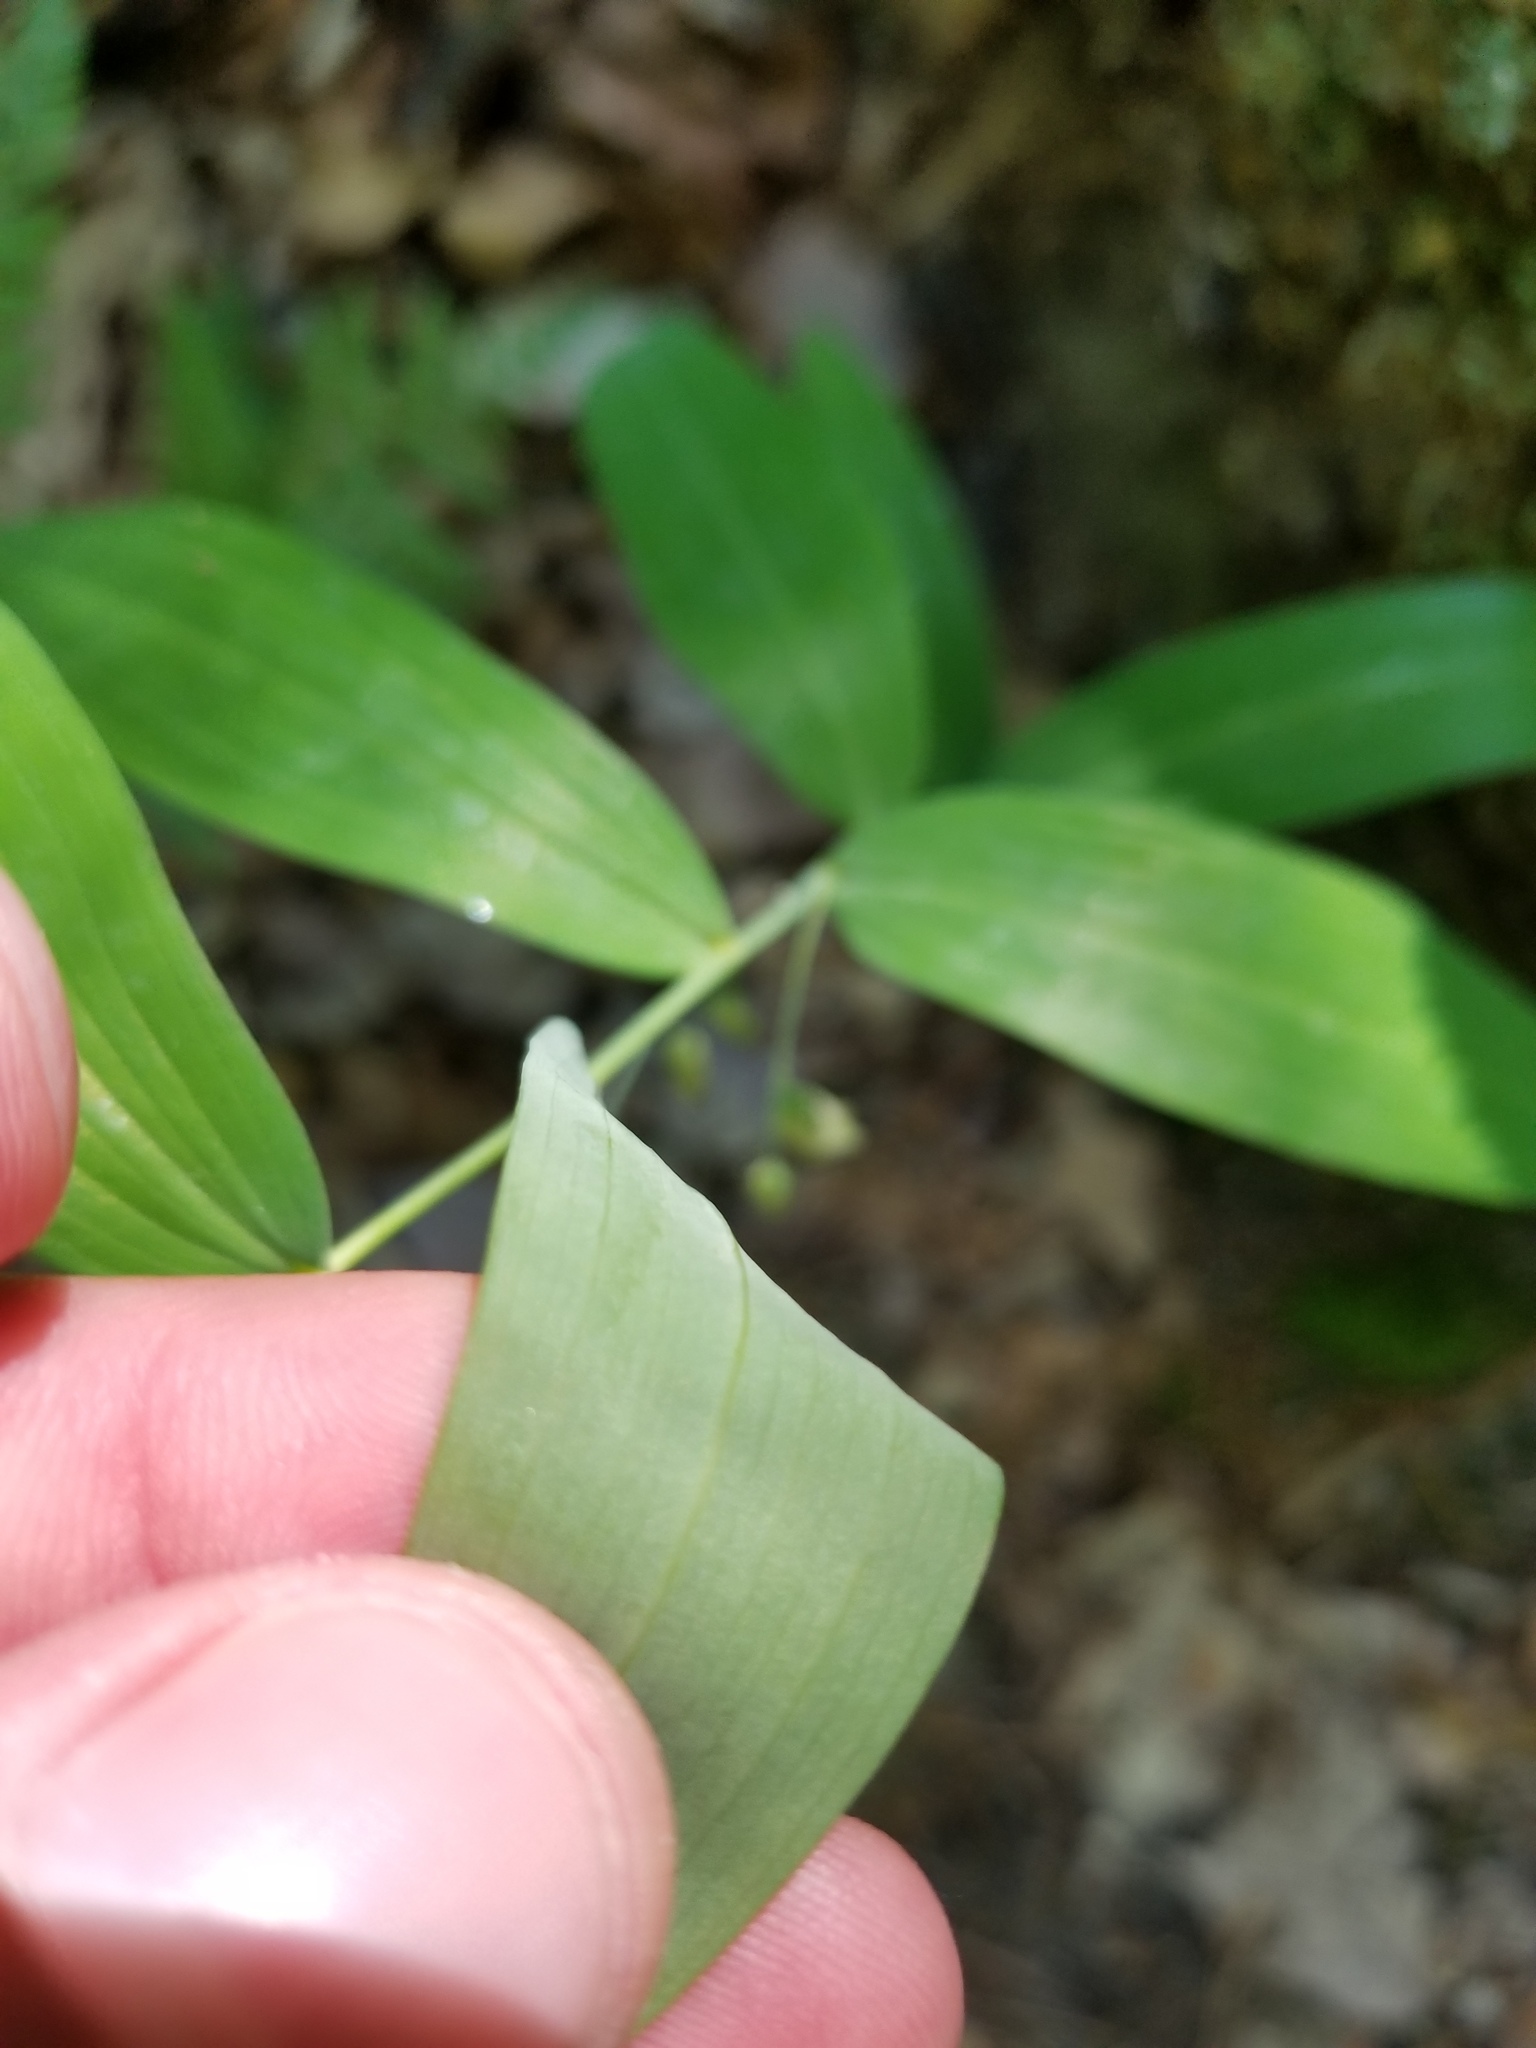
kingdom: Plantae
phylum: Tracheophyta
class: Liliopsida
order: Asparagales
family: Asparagaceae
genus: Polygonatum
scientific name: Polygonatum biflorum
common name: American solomon's-seal
